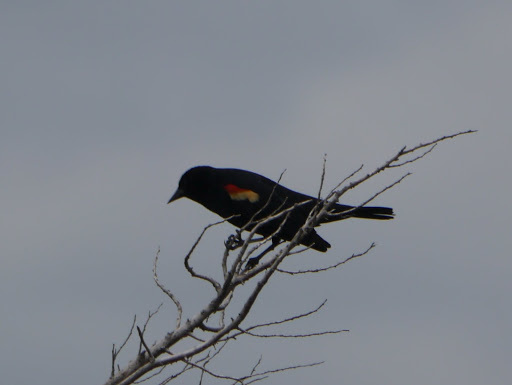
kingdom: Animalia
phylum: Chordata
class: Aves
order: Passeriformes
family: Icteridae
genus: Agelaius
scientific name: Agelaius phoeniceus
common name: Red-winged blackbird
